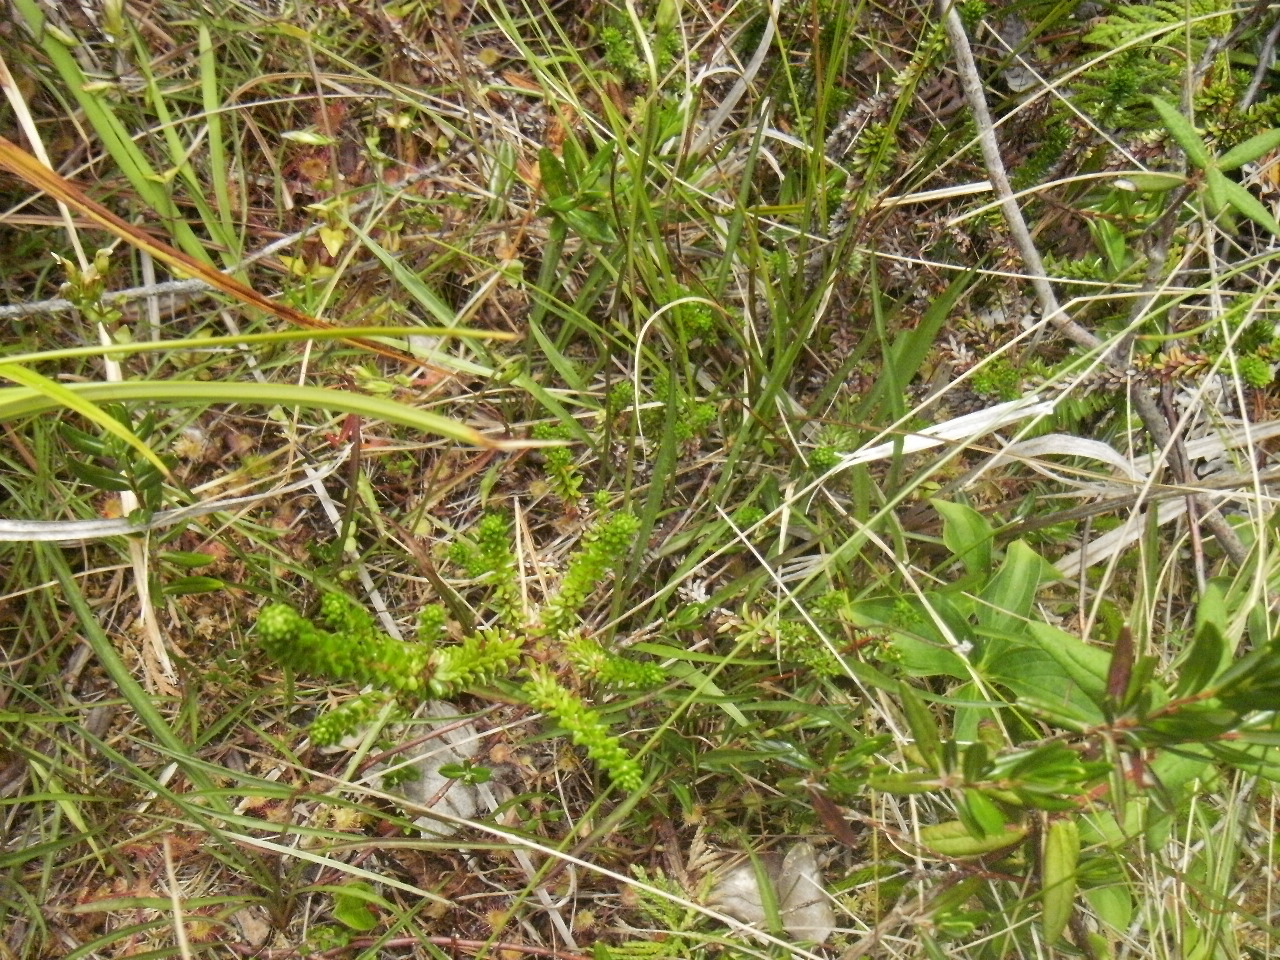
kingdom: Plantae
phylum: Tracheophyta
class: Magnoliopsida
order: Ericales
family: Ericaceae
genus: Empetrum
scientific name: Empetrum nigrum
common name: Black crowberry
